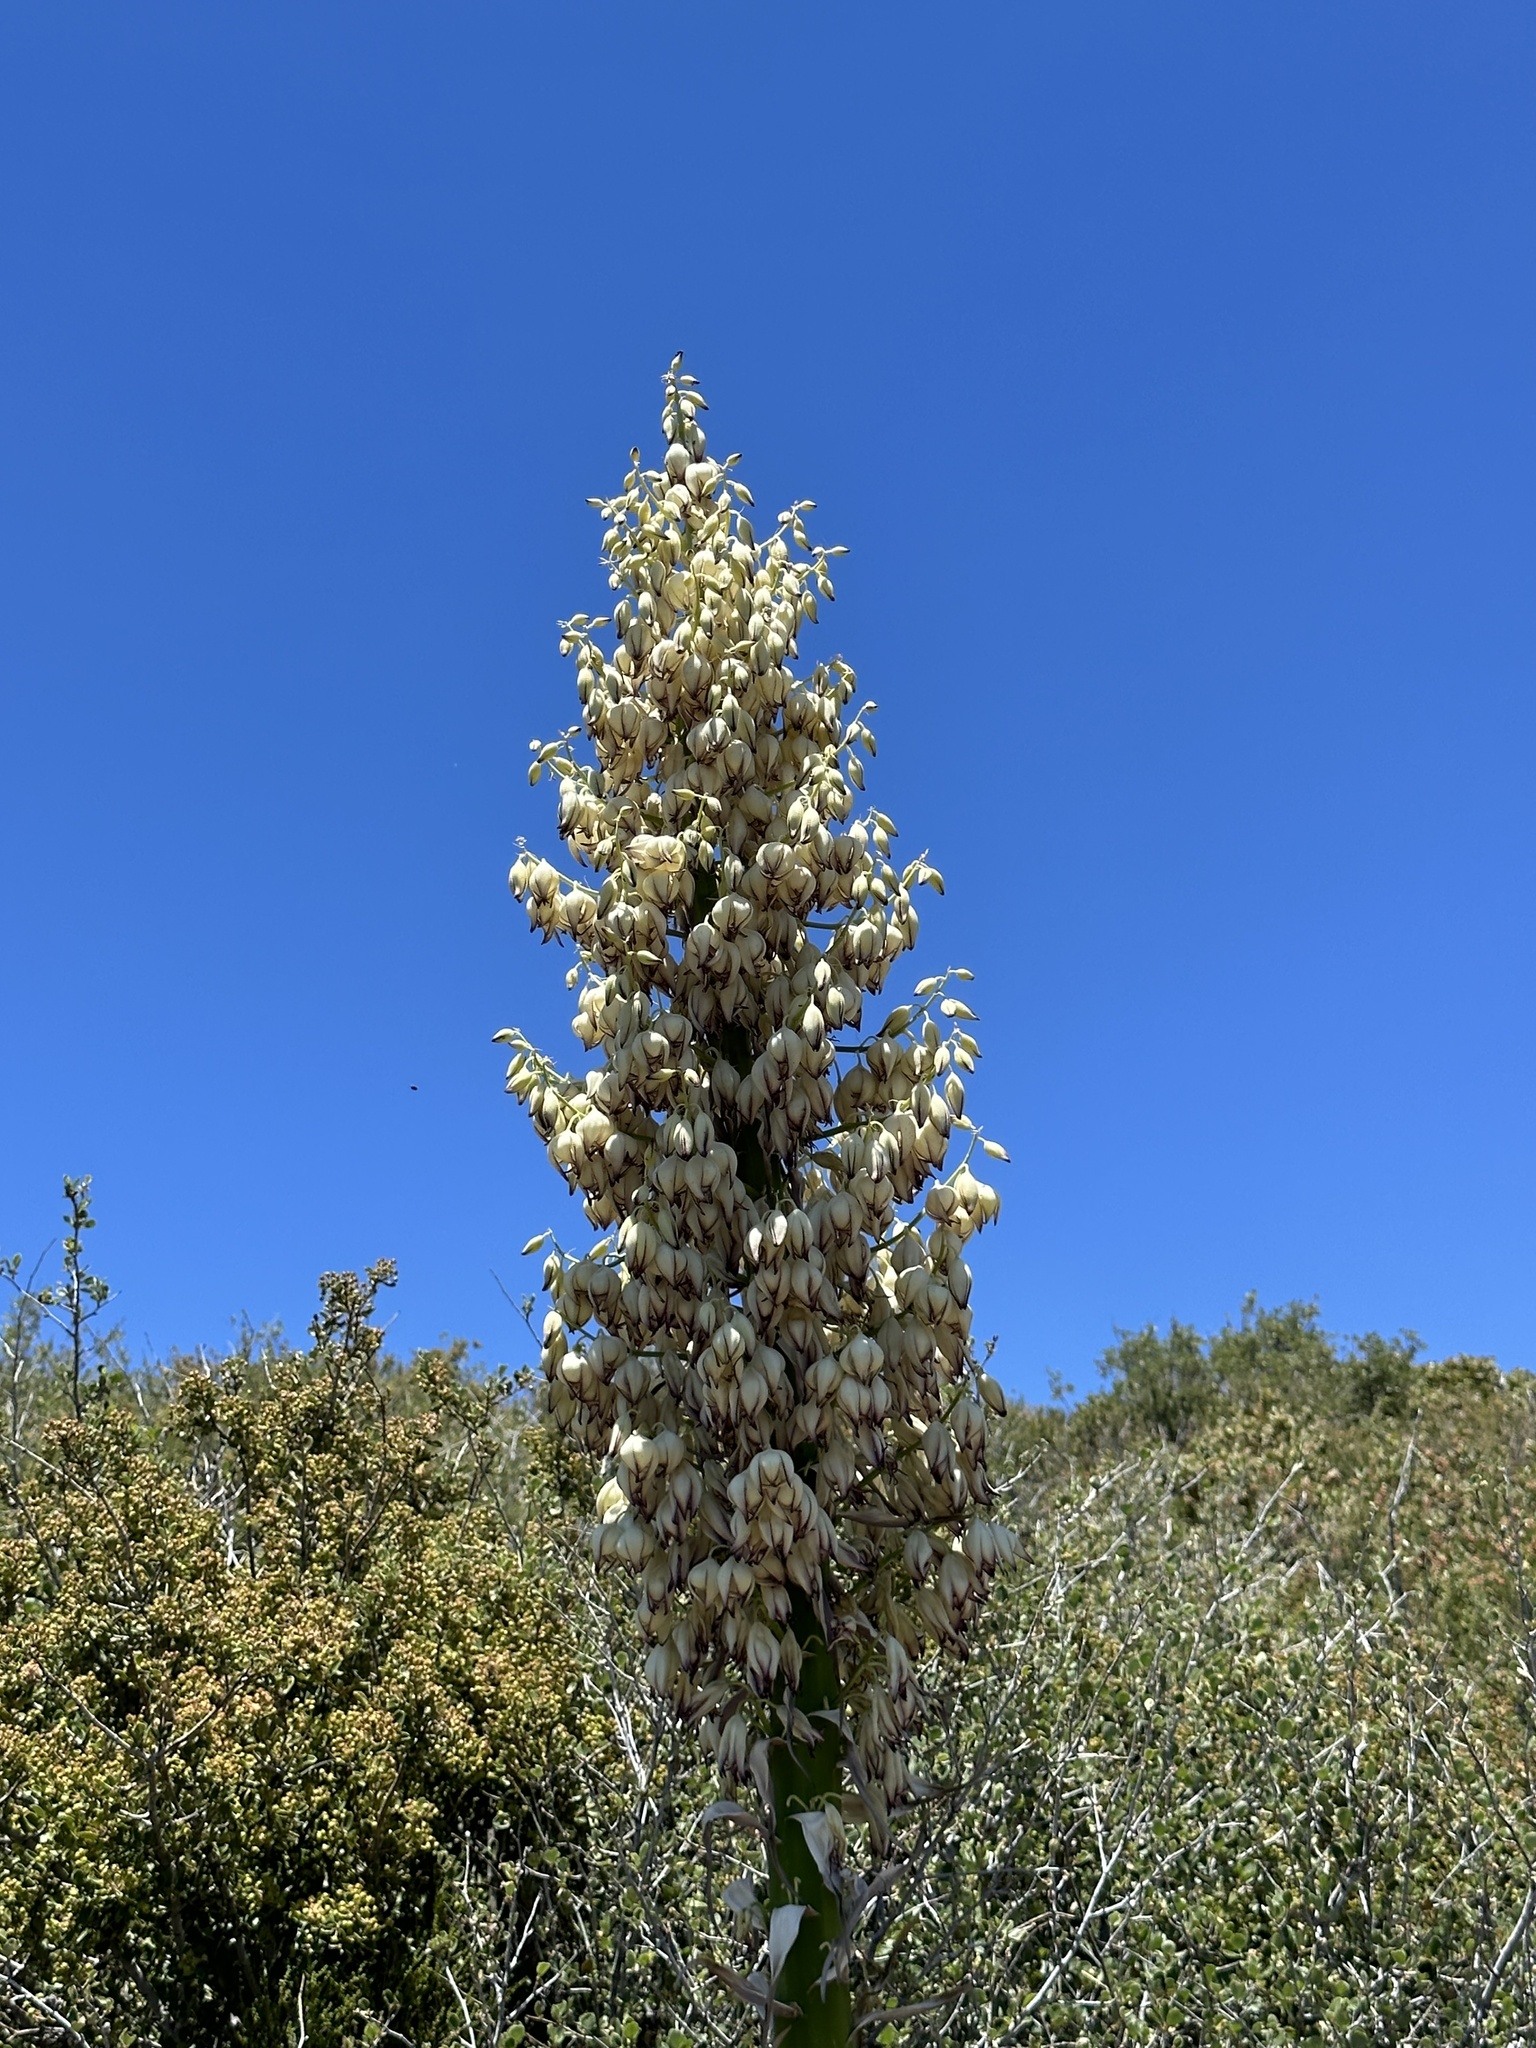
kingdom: Plantae
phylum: Tracheophyta
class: Liliopsida
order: Asparagales
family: Asparagaceae
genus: Hesperoyucca
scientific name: Hesperoyucca whipplei
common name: Our lord's-candle
